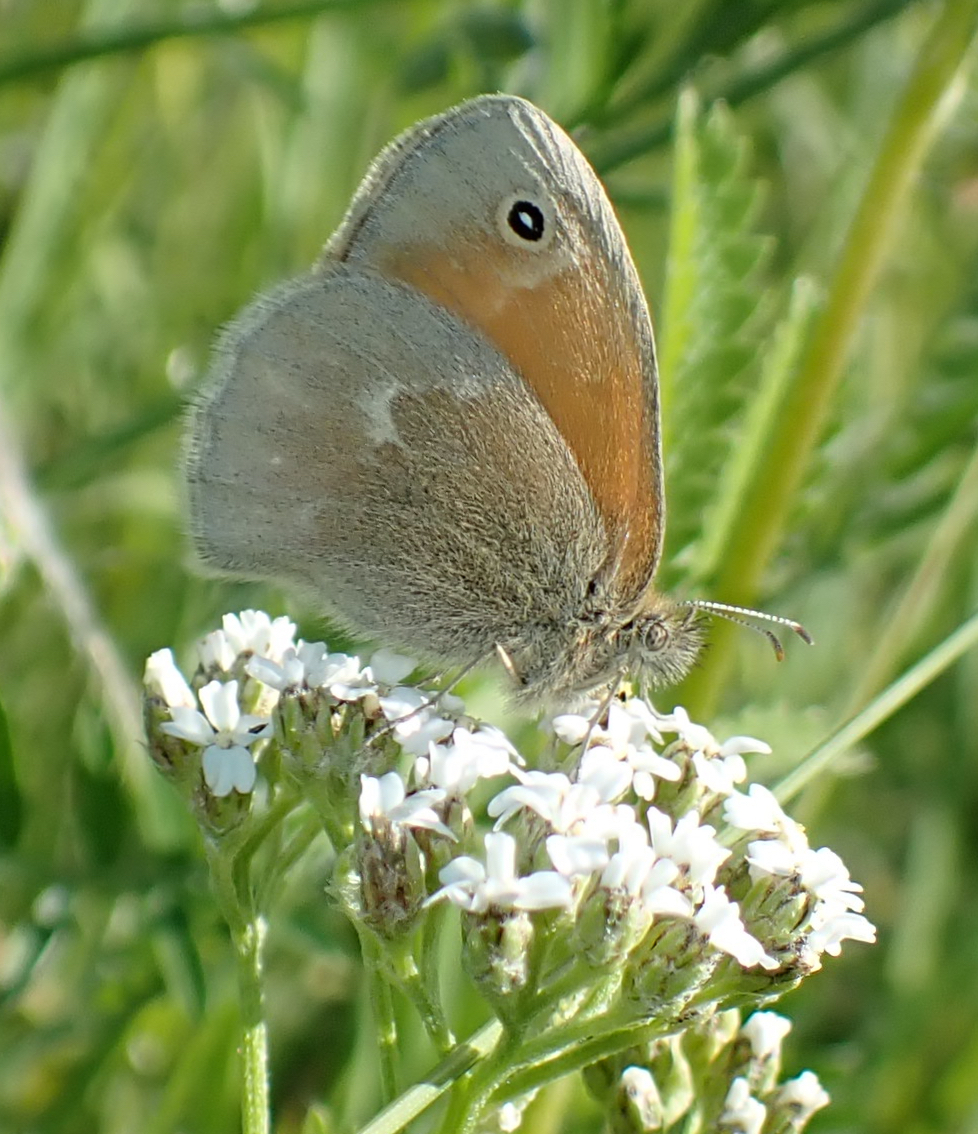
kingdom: Animalia
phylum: Arthropoda
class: Insecta
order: Lepidoptera
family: Nymphalidae
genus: Coenonympha
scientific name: Coenonympha california
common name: Common ringlet
